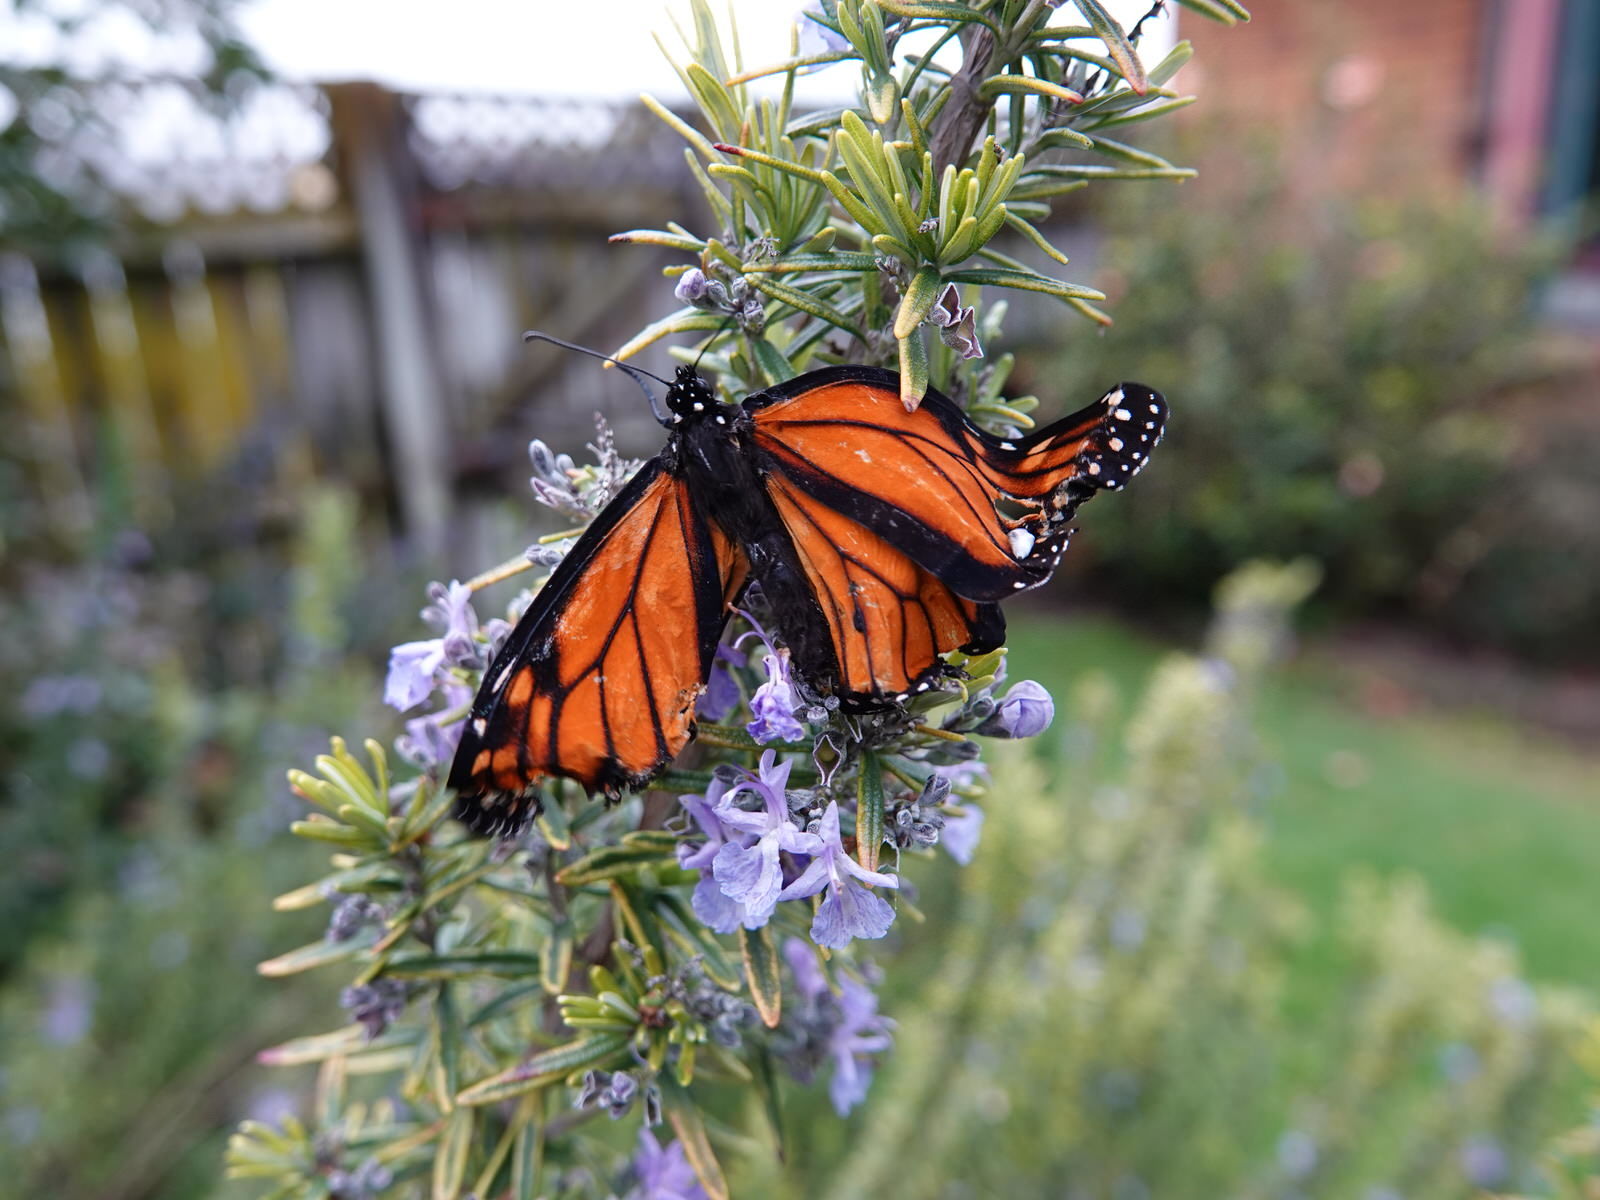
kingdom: Animalia
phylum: Arthropoda
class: Insecta
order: Lepidoptera
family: Nymphalidae
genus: Danaus
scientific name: Danaus plexippus
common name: Monarch
